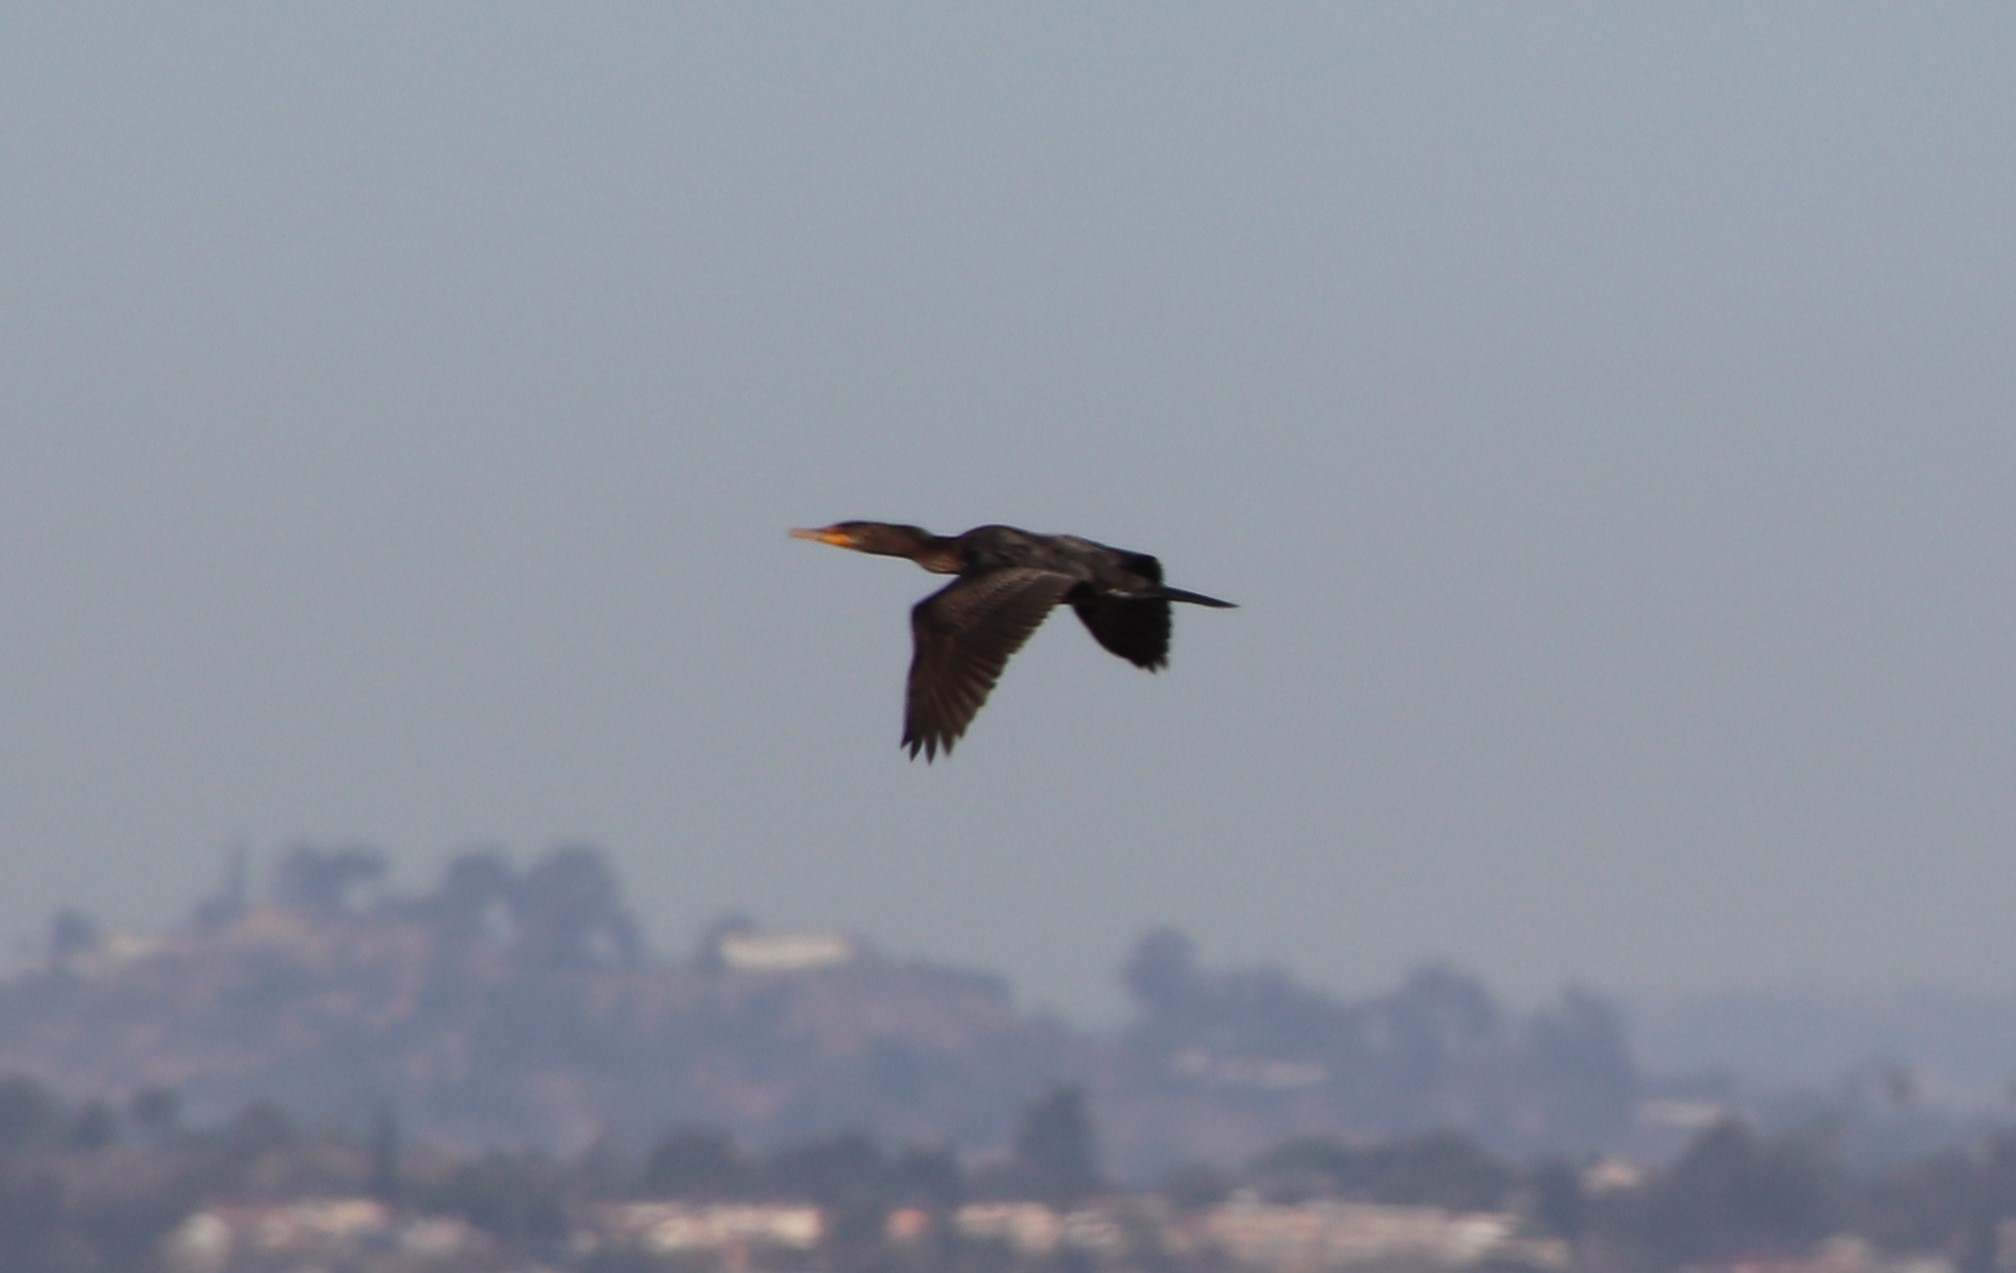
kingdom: Animalia
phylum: Chordata
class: Aves
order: Suliformes
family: Phalacrocoracidae
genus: Phalacrocorax
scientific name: Phalacrocorax auritus
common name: Double-crested cormorant
